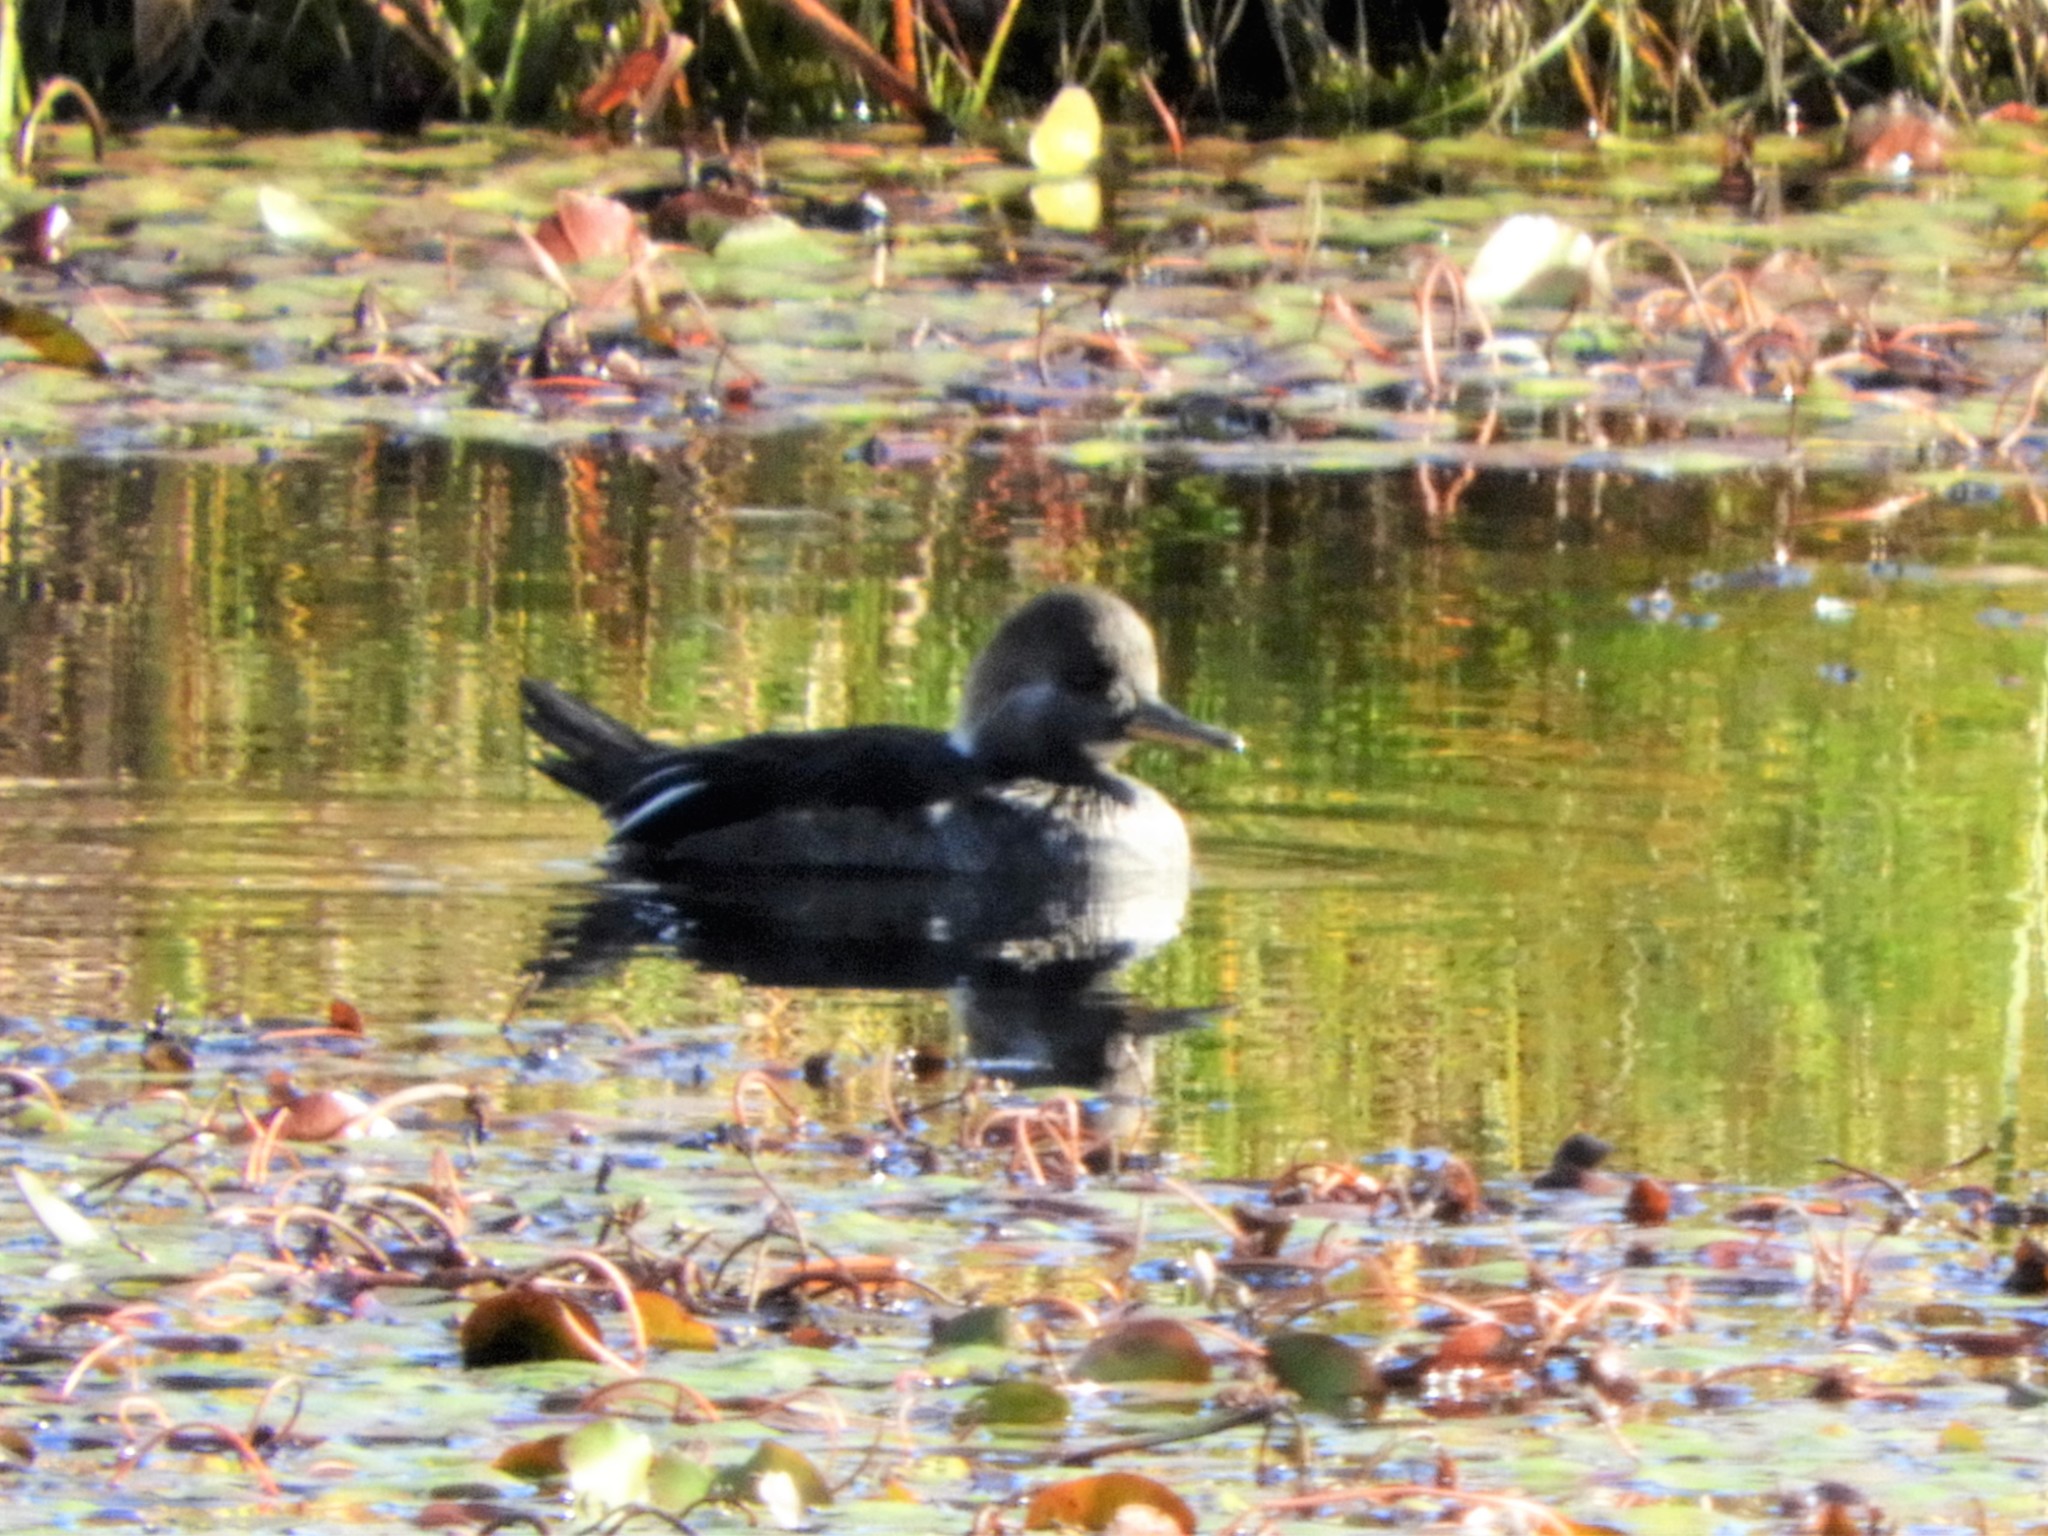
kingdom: Animalia
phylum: Chordata
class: Aves
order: Anseriformes
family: Anatidae
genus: Lophodytes
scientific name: Lophodytes cucullatus
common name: Hooded merganser
